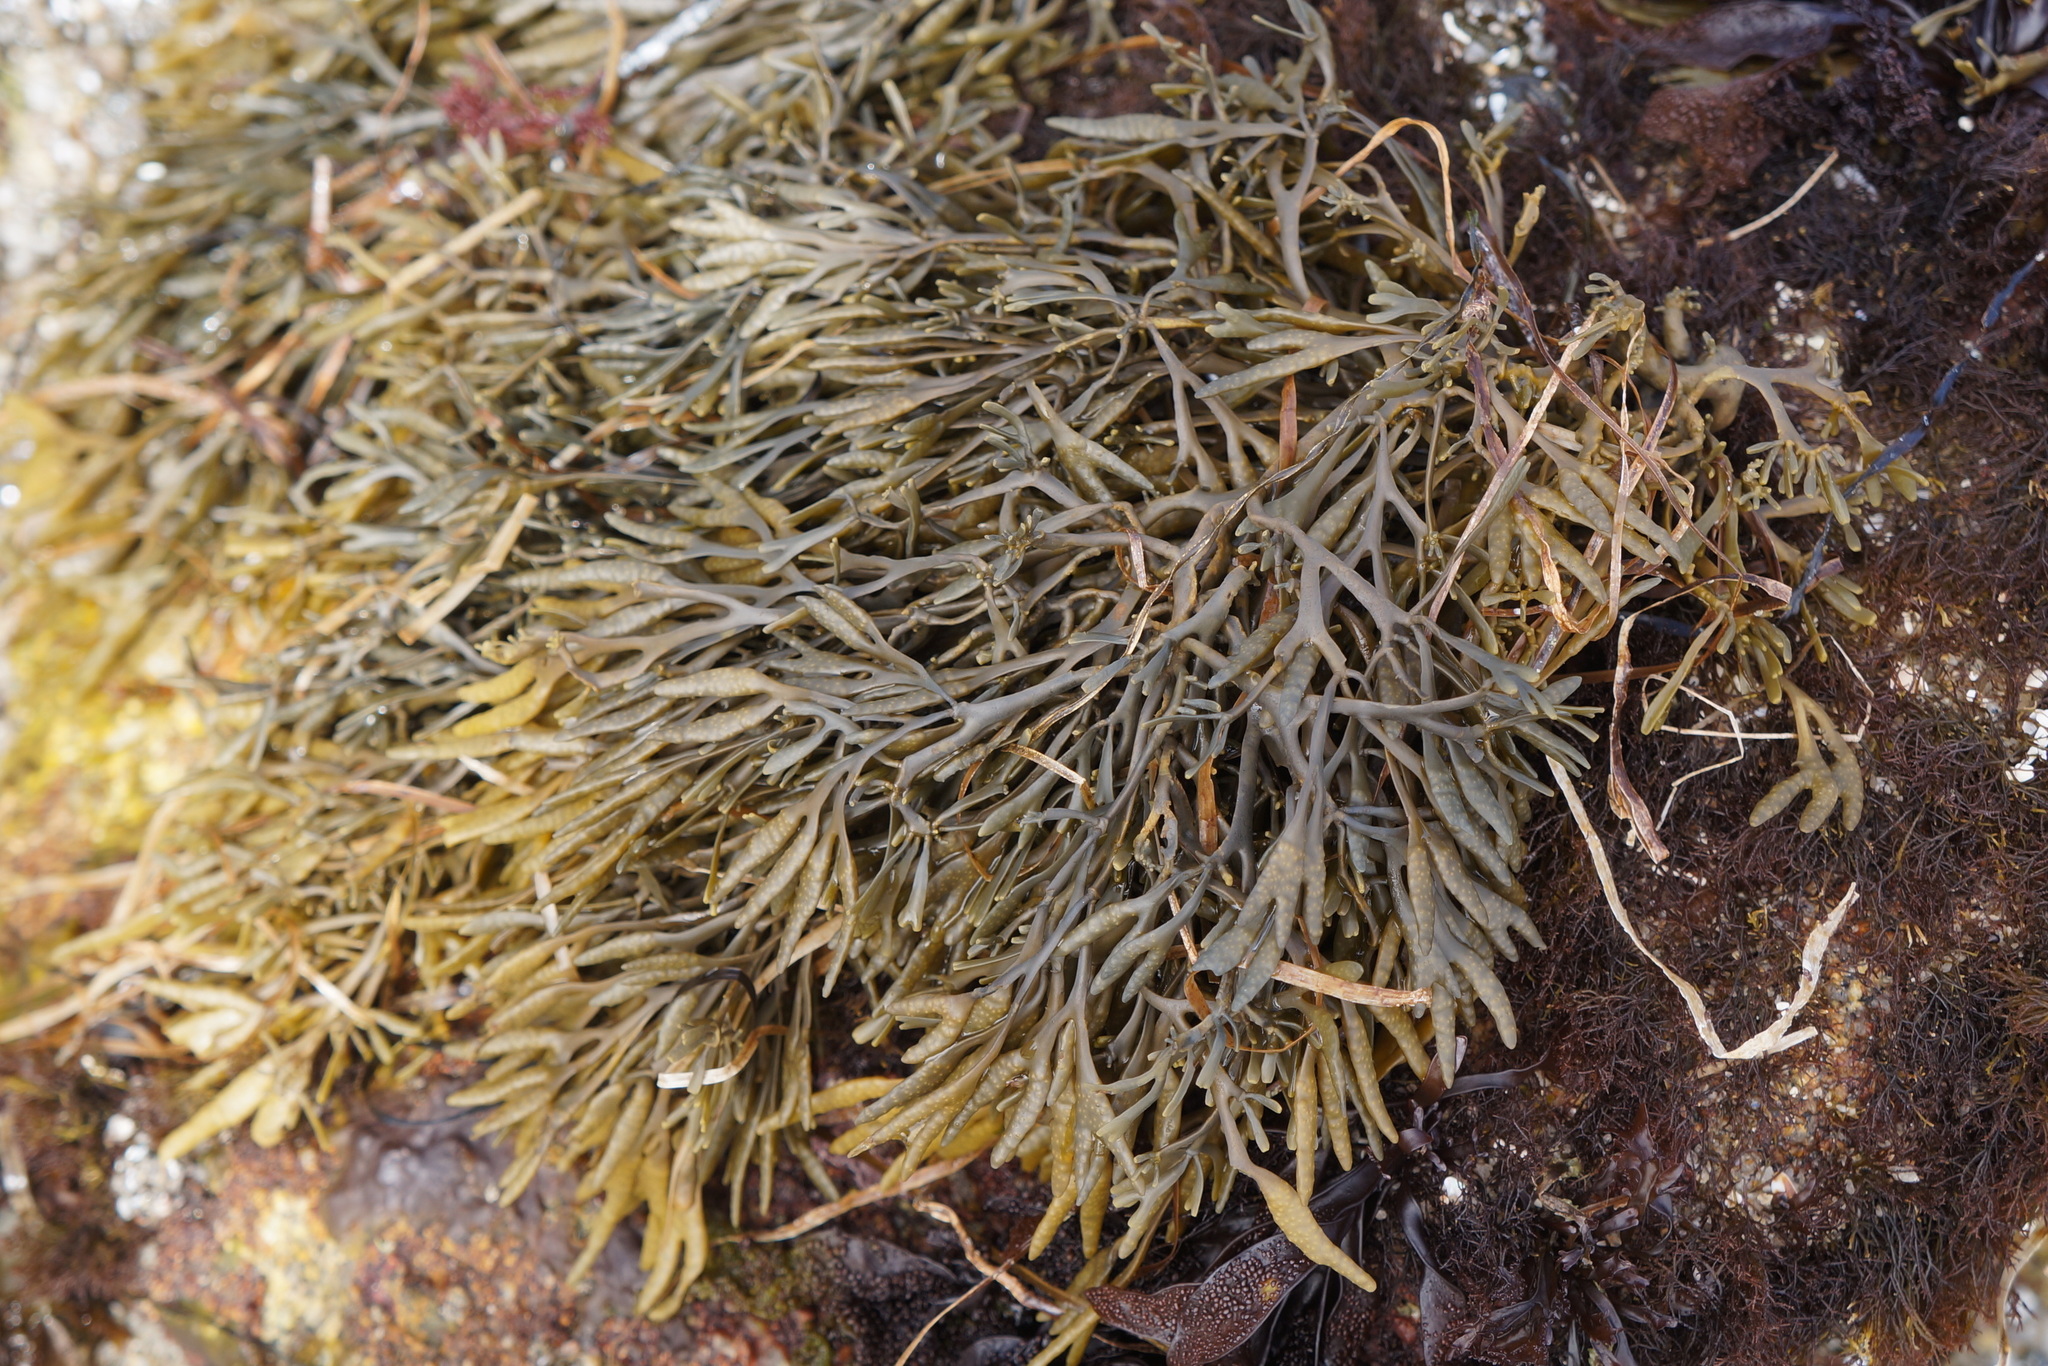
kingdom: Chromista
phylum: Ochrophyta
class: Phaeophyceae
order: Fucales
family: Fucaceae
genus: Silvetia
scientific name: Silvetia
